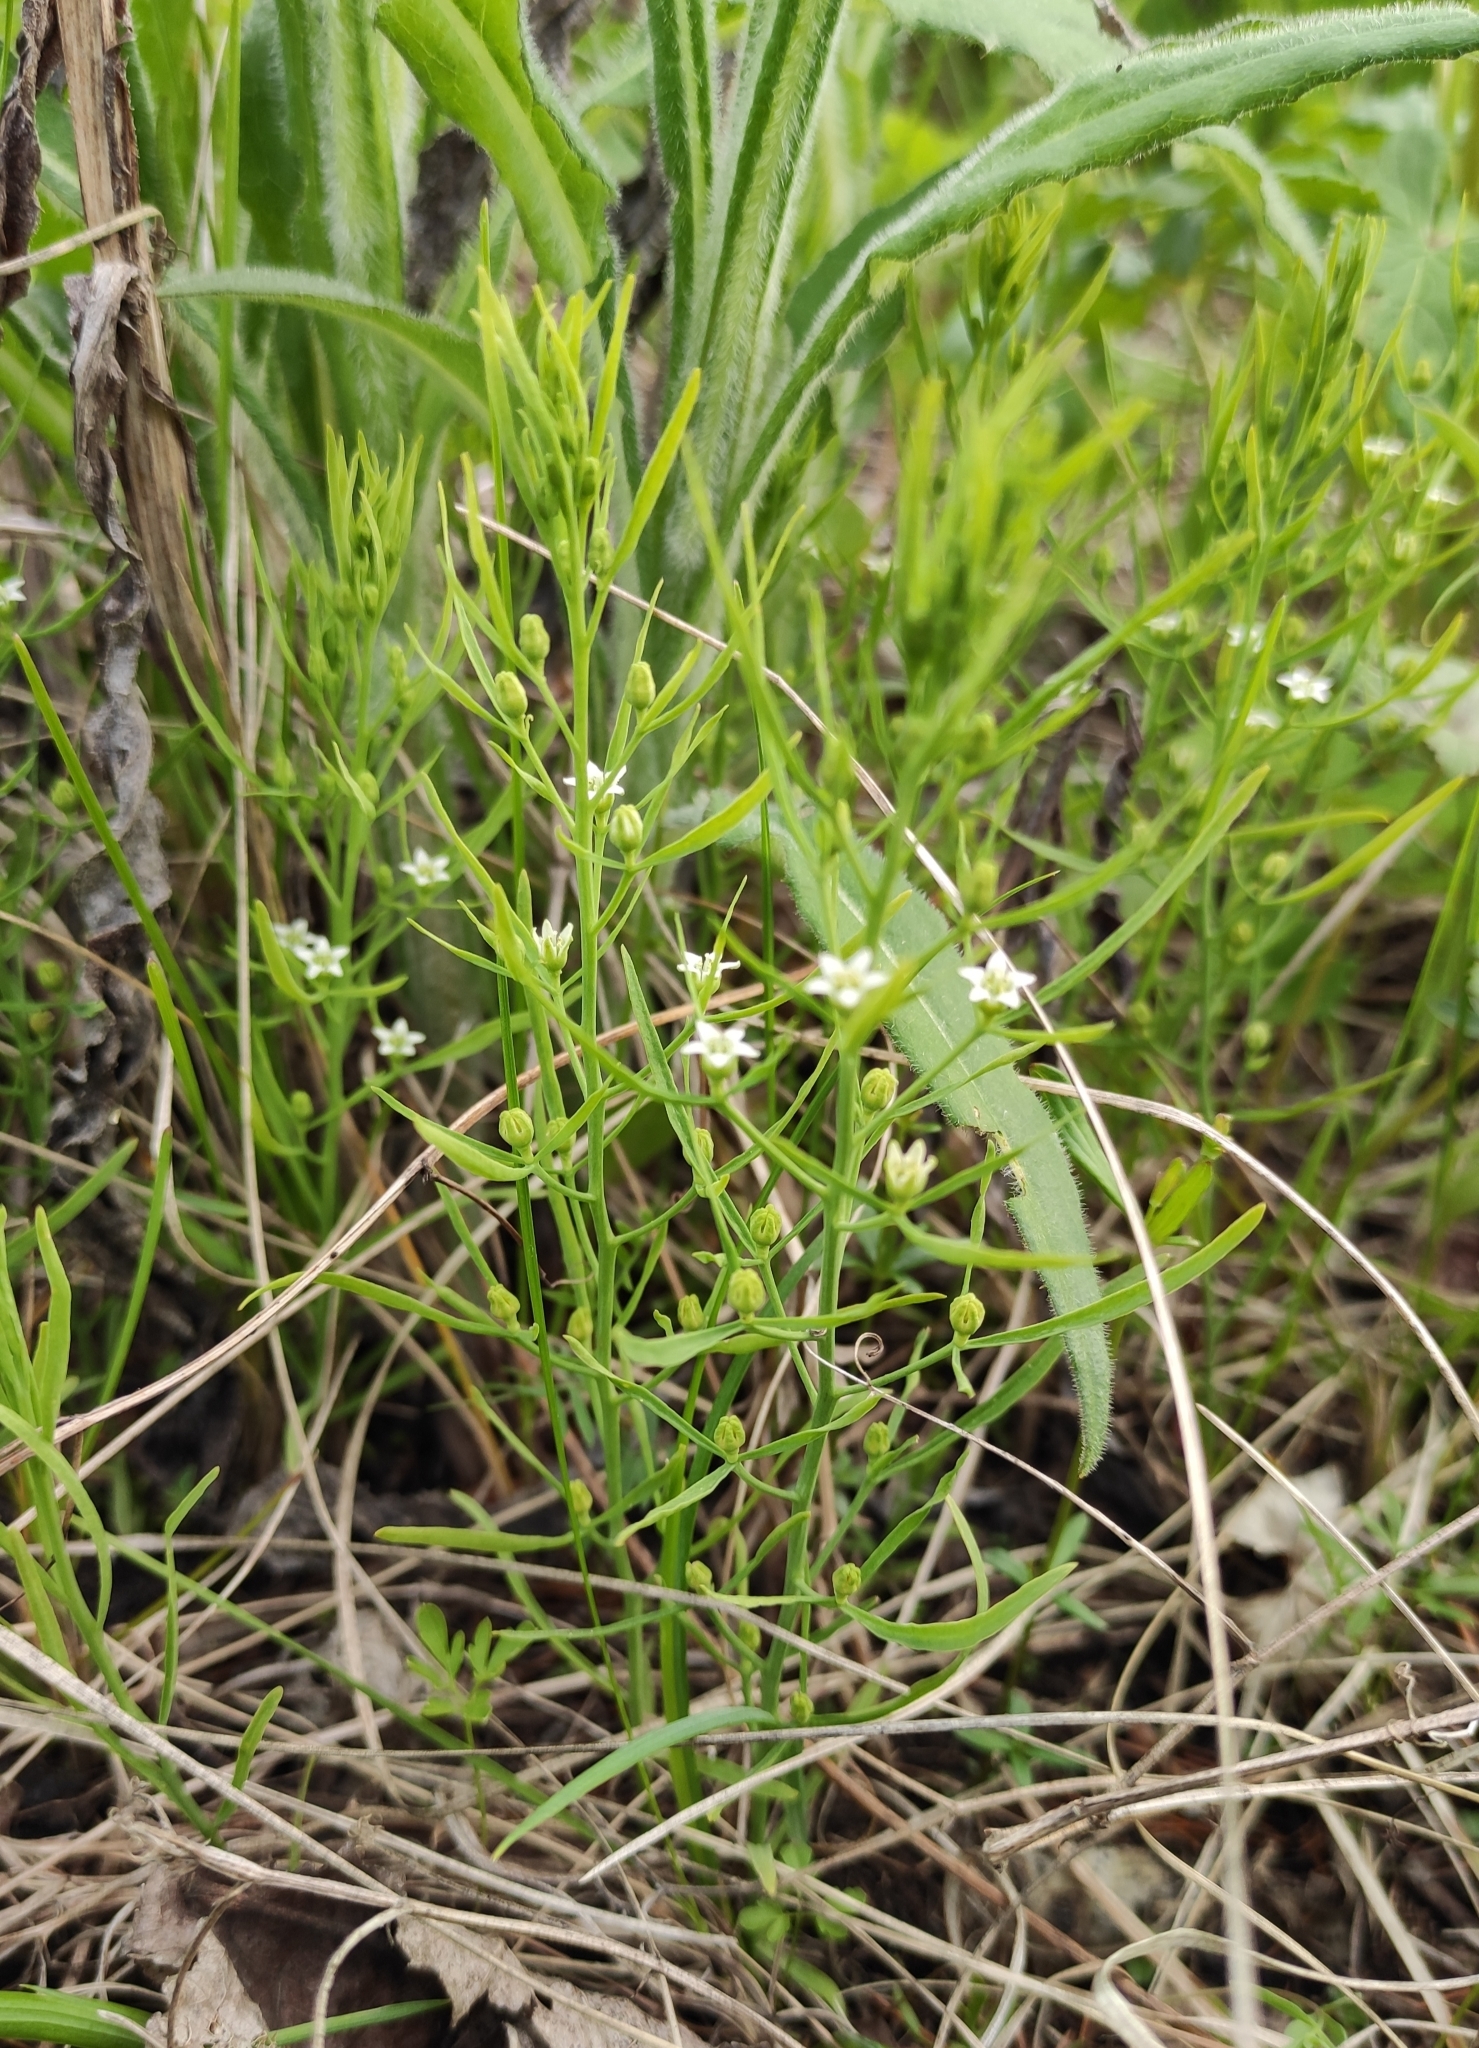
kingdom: Plantae
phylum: Tracheophyta
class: Magnoliopsida
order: Santalales
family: Thesiaceae
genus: Thesium
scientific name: Thesium repens
